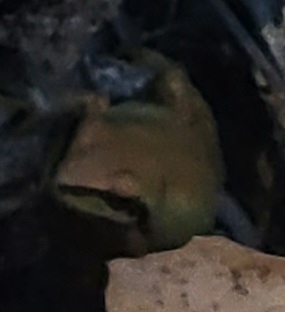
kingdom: Animalia
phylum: Chordata
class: Amphibia
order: Anura
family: Hylidae
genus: Pseudacris
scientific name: Pseudacris regilla
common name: Pacific chorus frog
